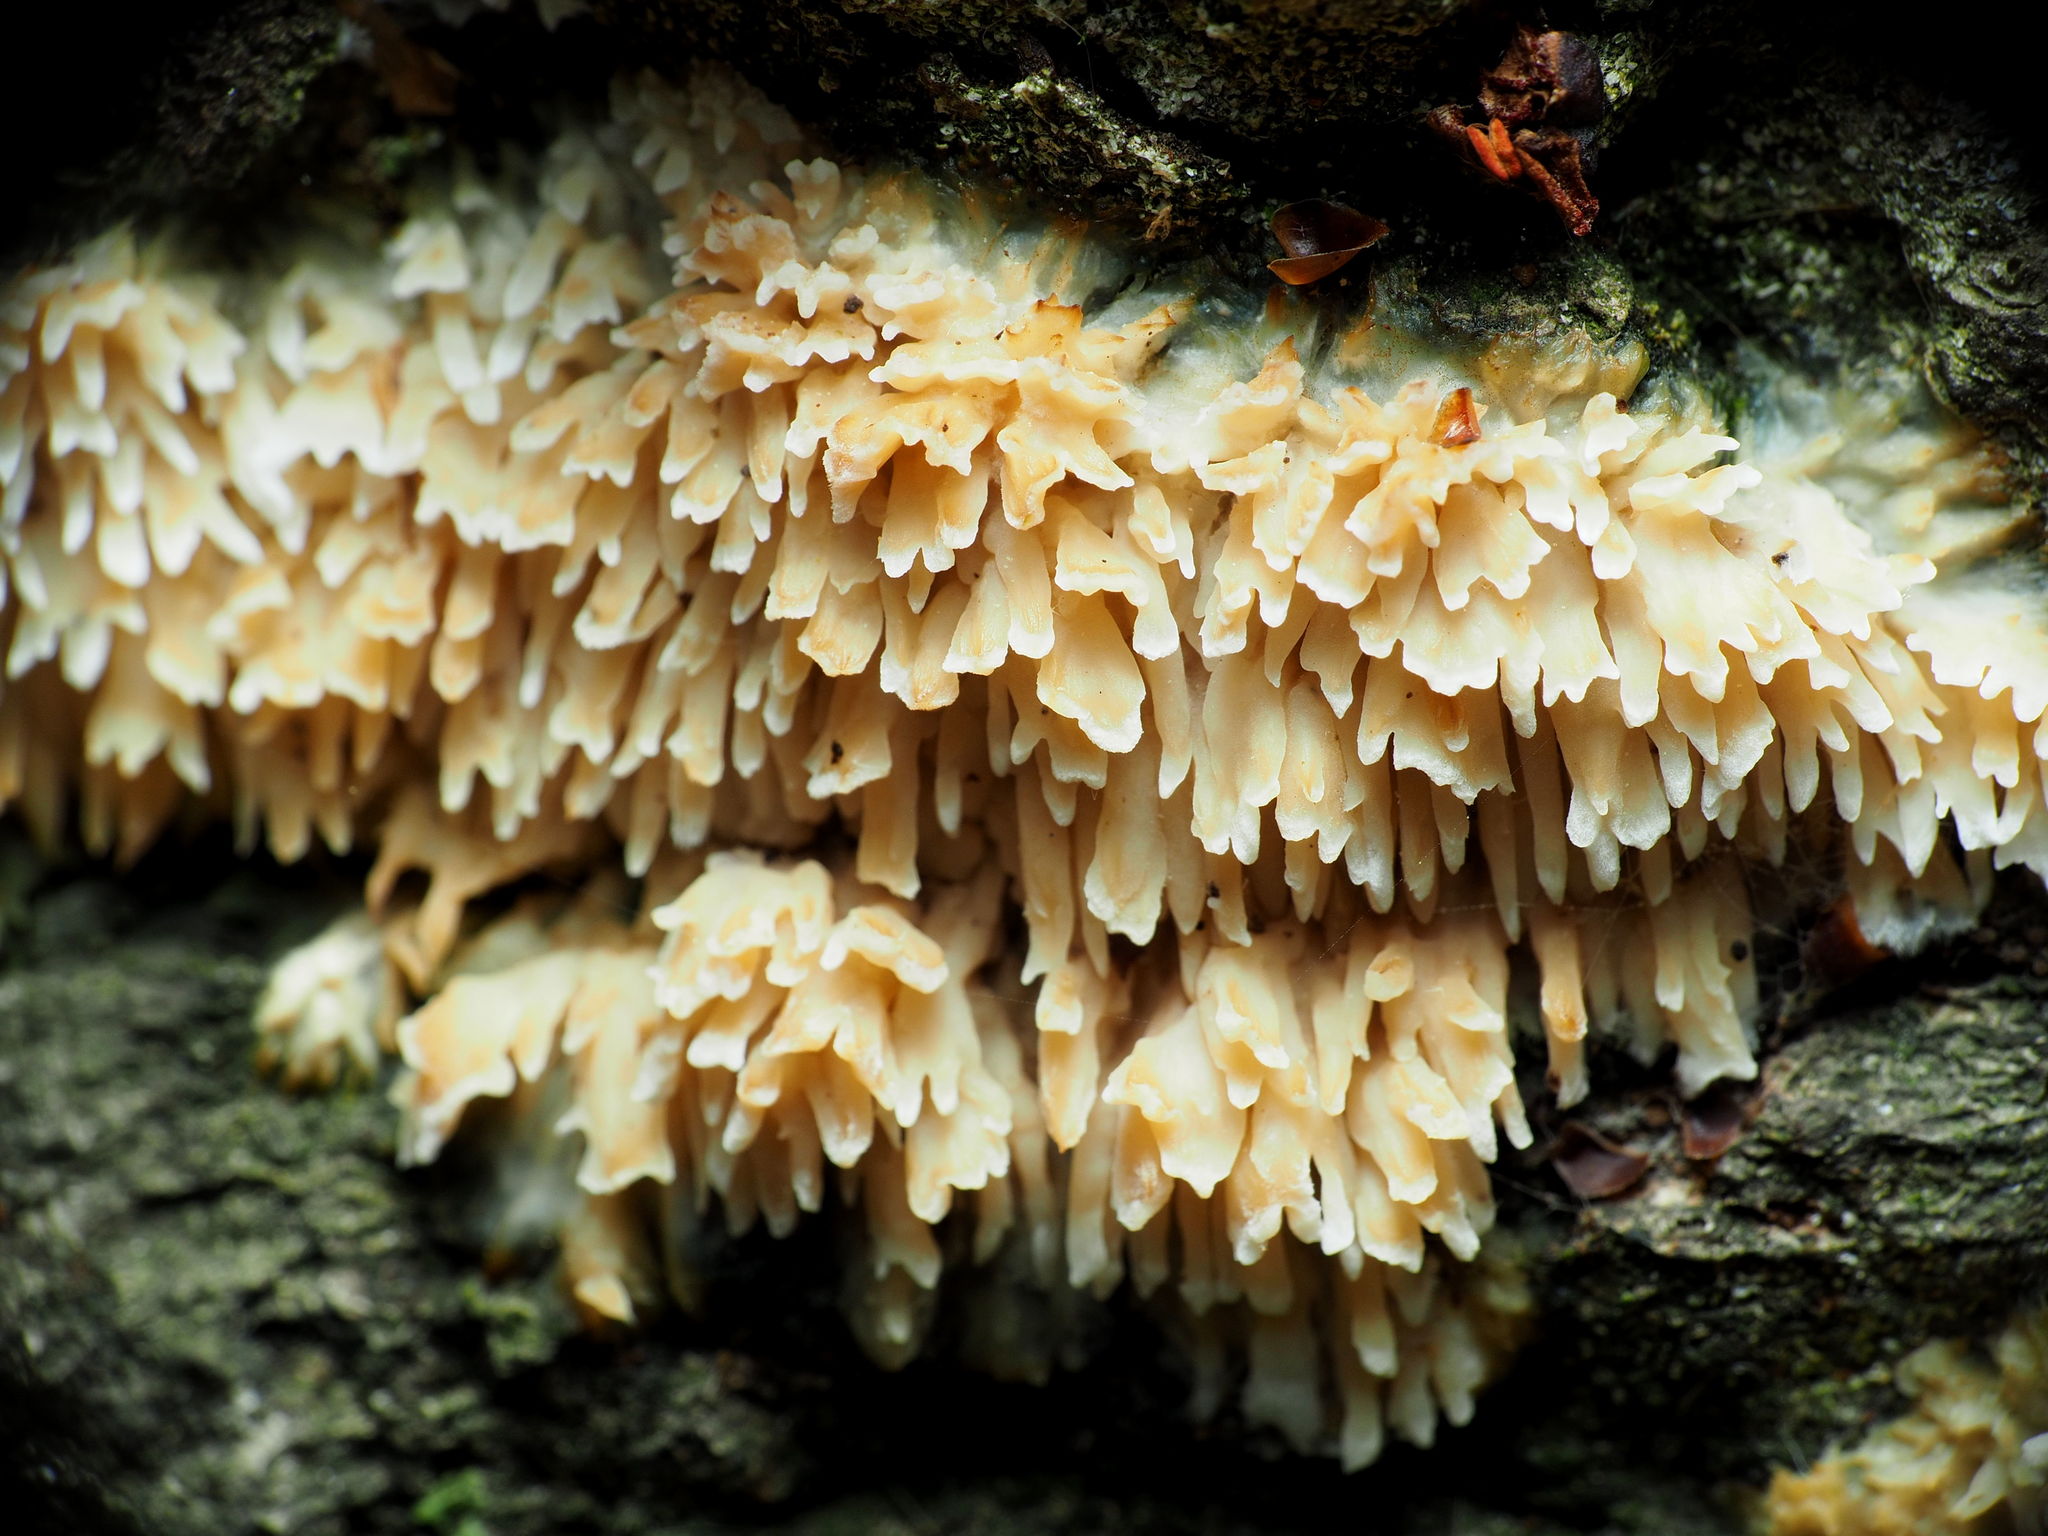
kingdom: Fungi
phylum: Basidiomycota
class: Agaricomycetes
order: Agaricales
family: Radulomycetaceae
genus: Radulomyces
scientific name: Radulomyces copelandii
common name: Asian beauty
